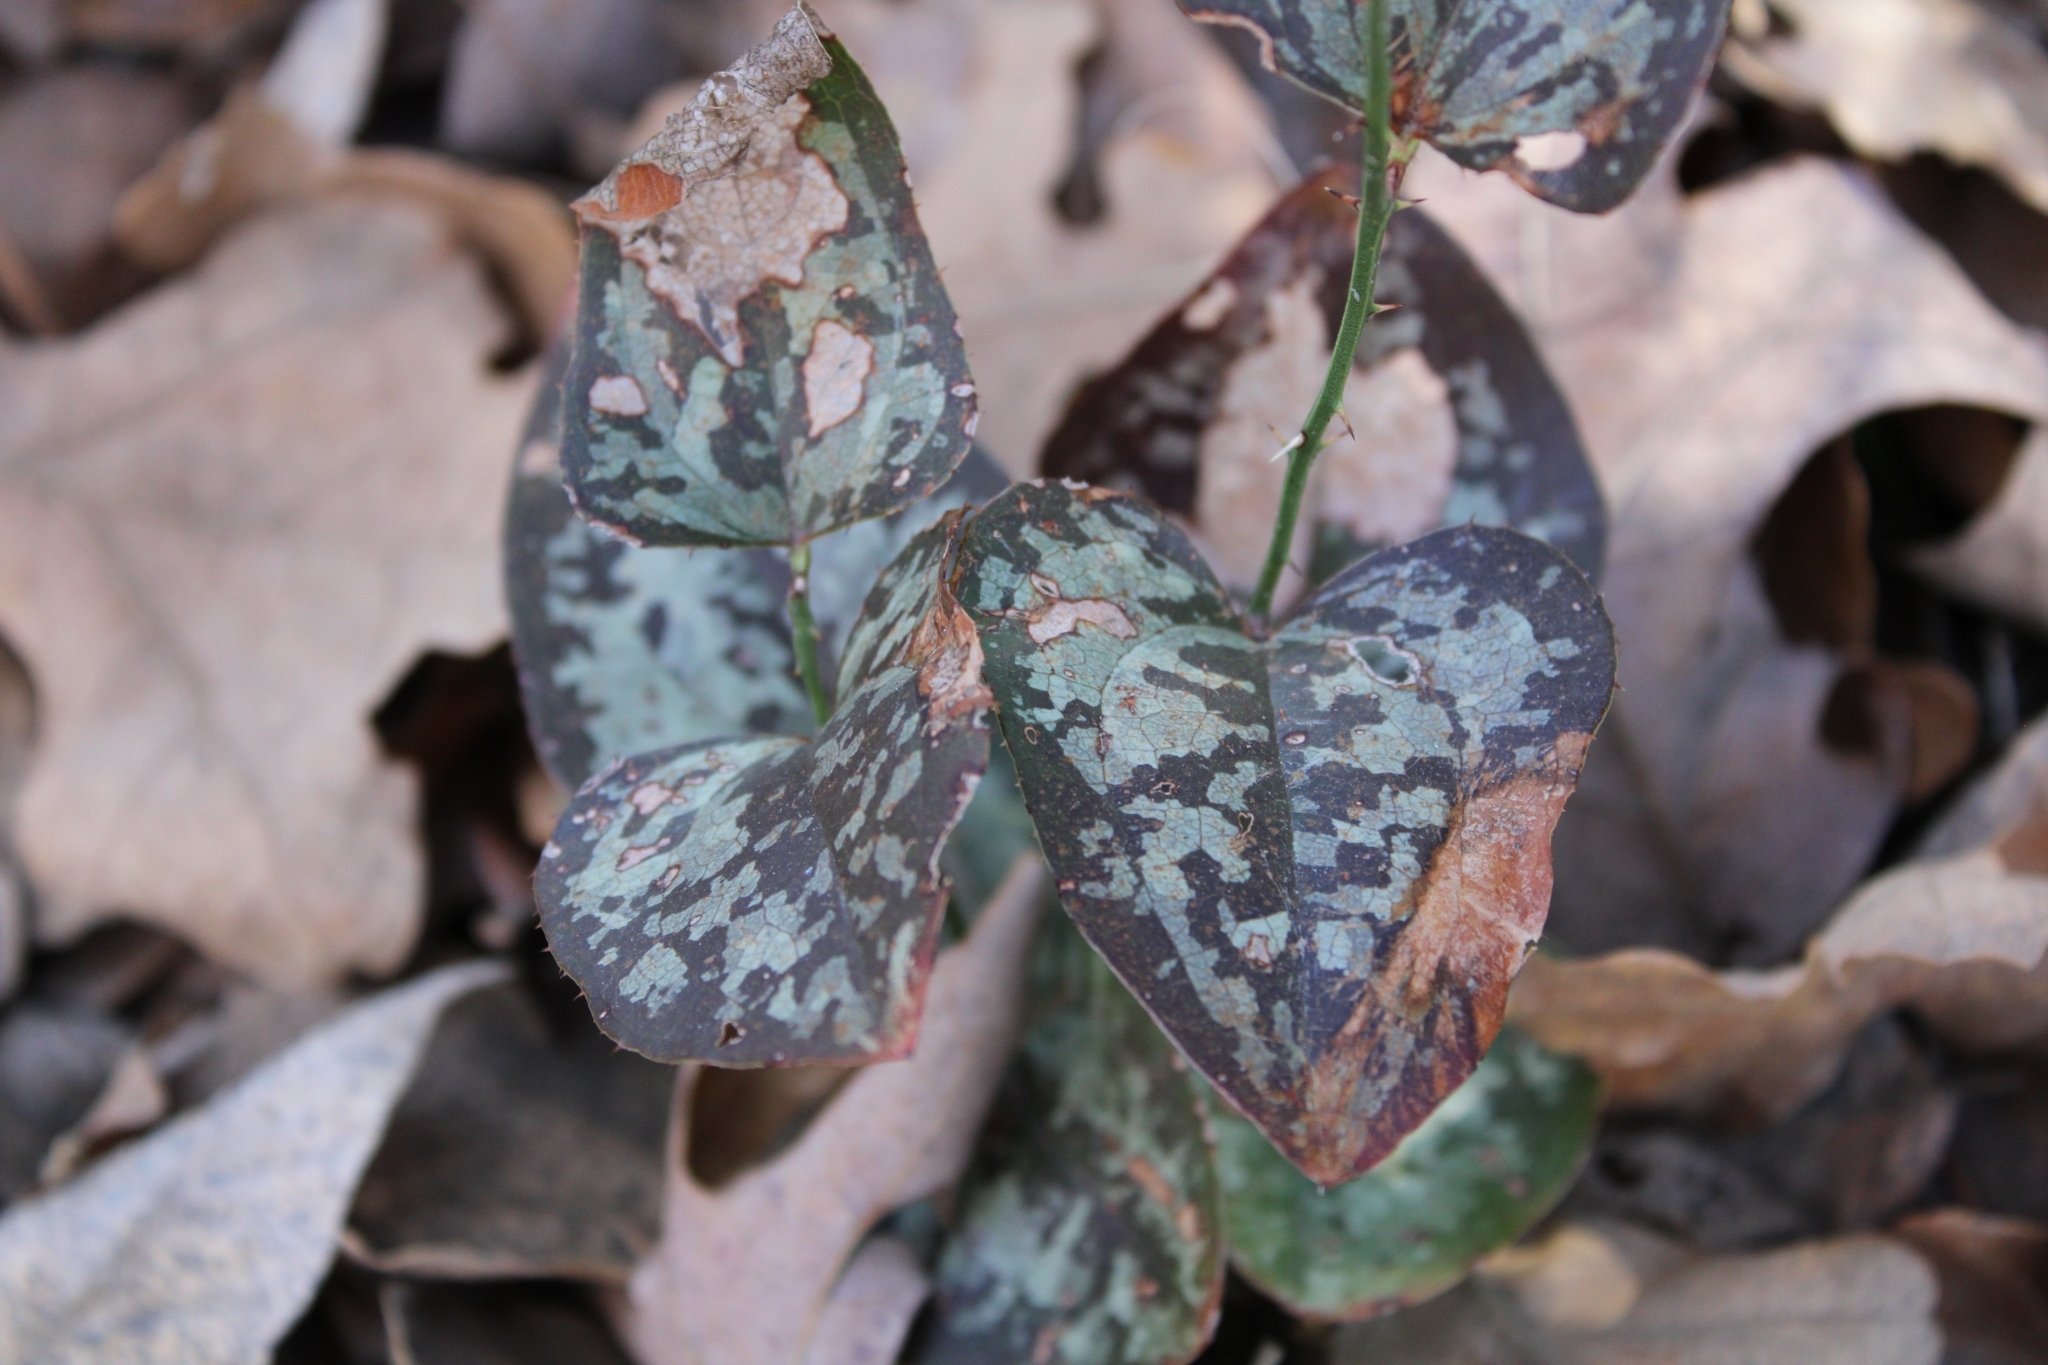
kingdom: Plantae
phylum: Tracheophyta
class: Liliopsida
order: Liliales
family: Smilacaceae
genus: Smilax
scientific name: Smilax bona-nox
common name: Catbrier
